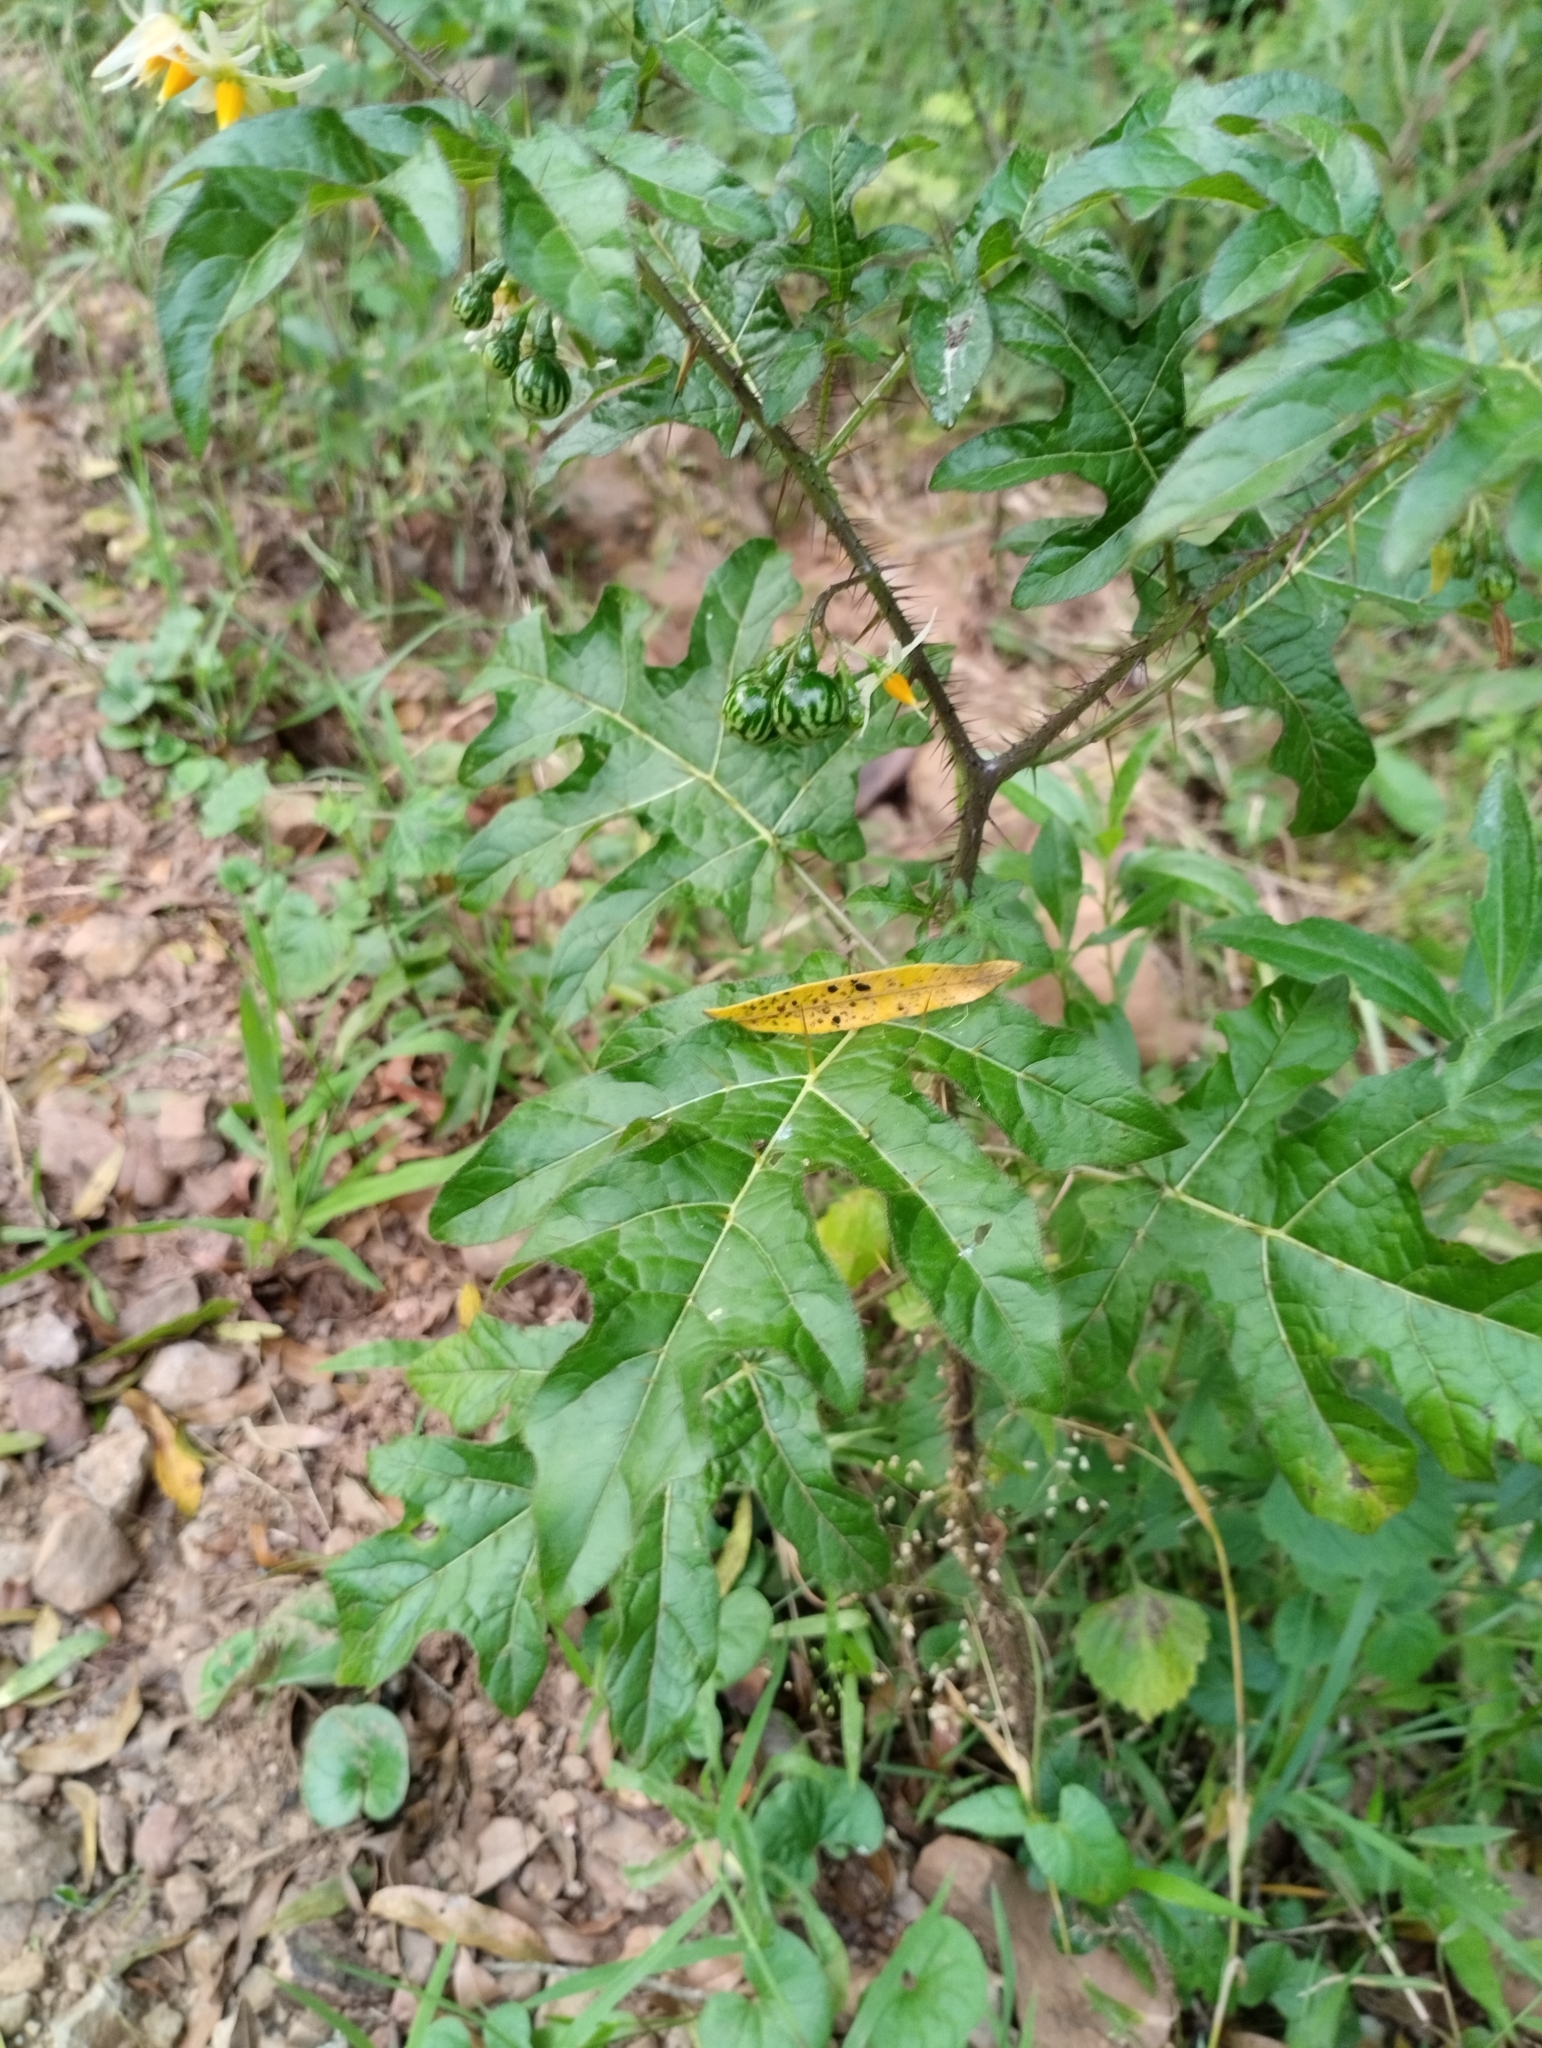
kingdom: Plantae
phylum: Tracheophyta
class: Magnoliopsida
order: Solanales
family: Solanaceae
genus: Solanum
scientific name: Solanum atropurpureum
